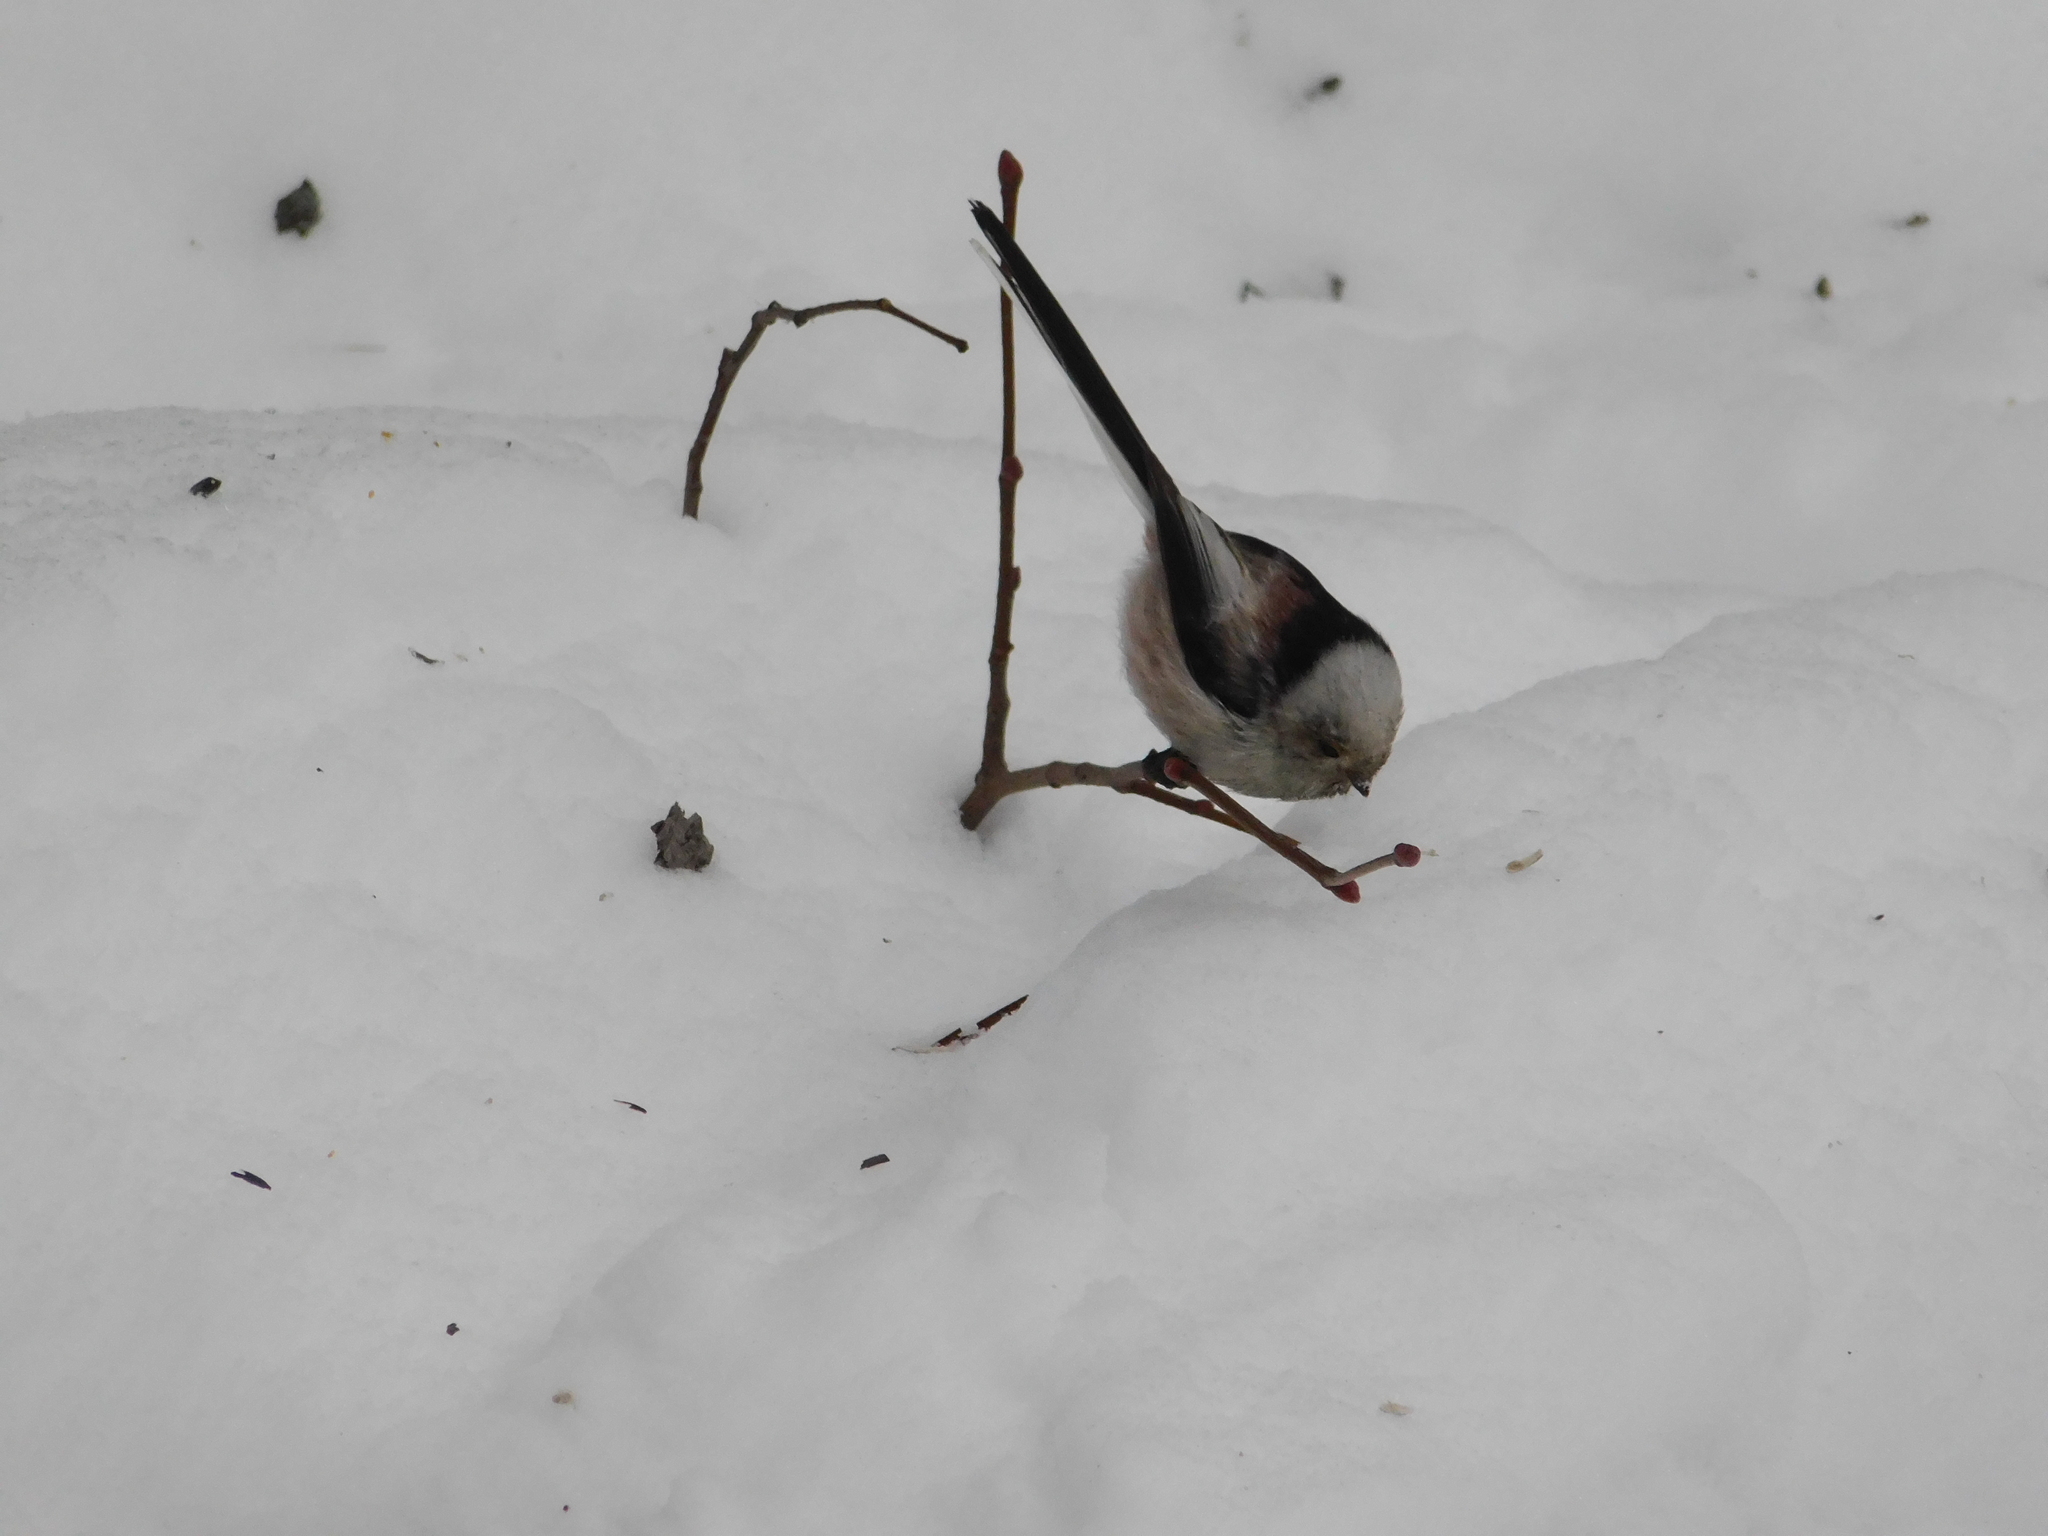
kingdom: Animalia
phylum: Chordata
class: Aves
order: Passeriformes
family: Aegithalidae
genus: Aegithalos
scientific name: Aegithalos caudatus
